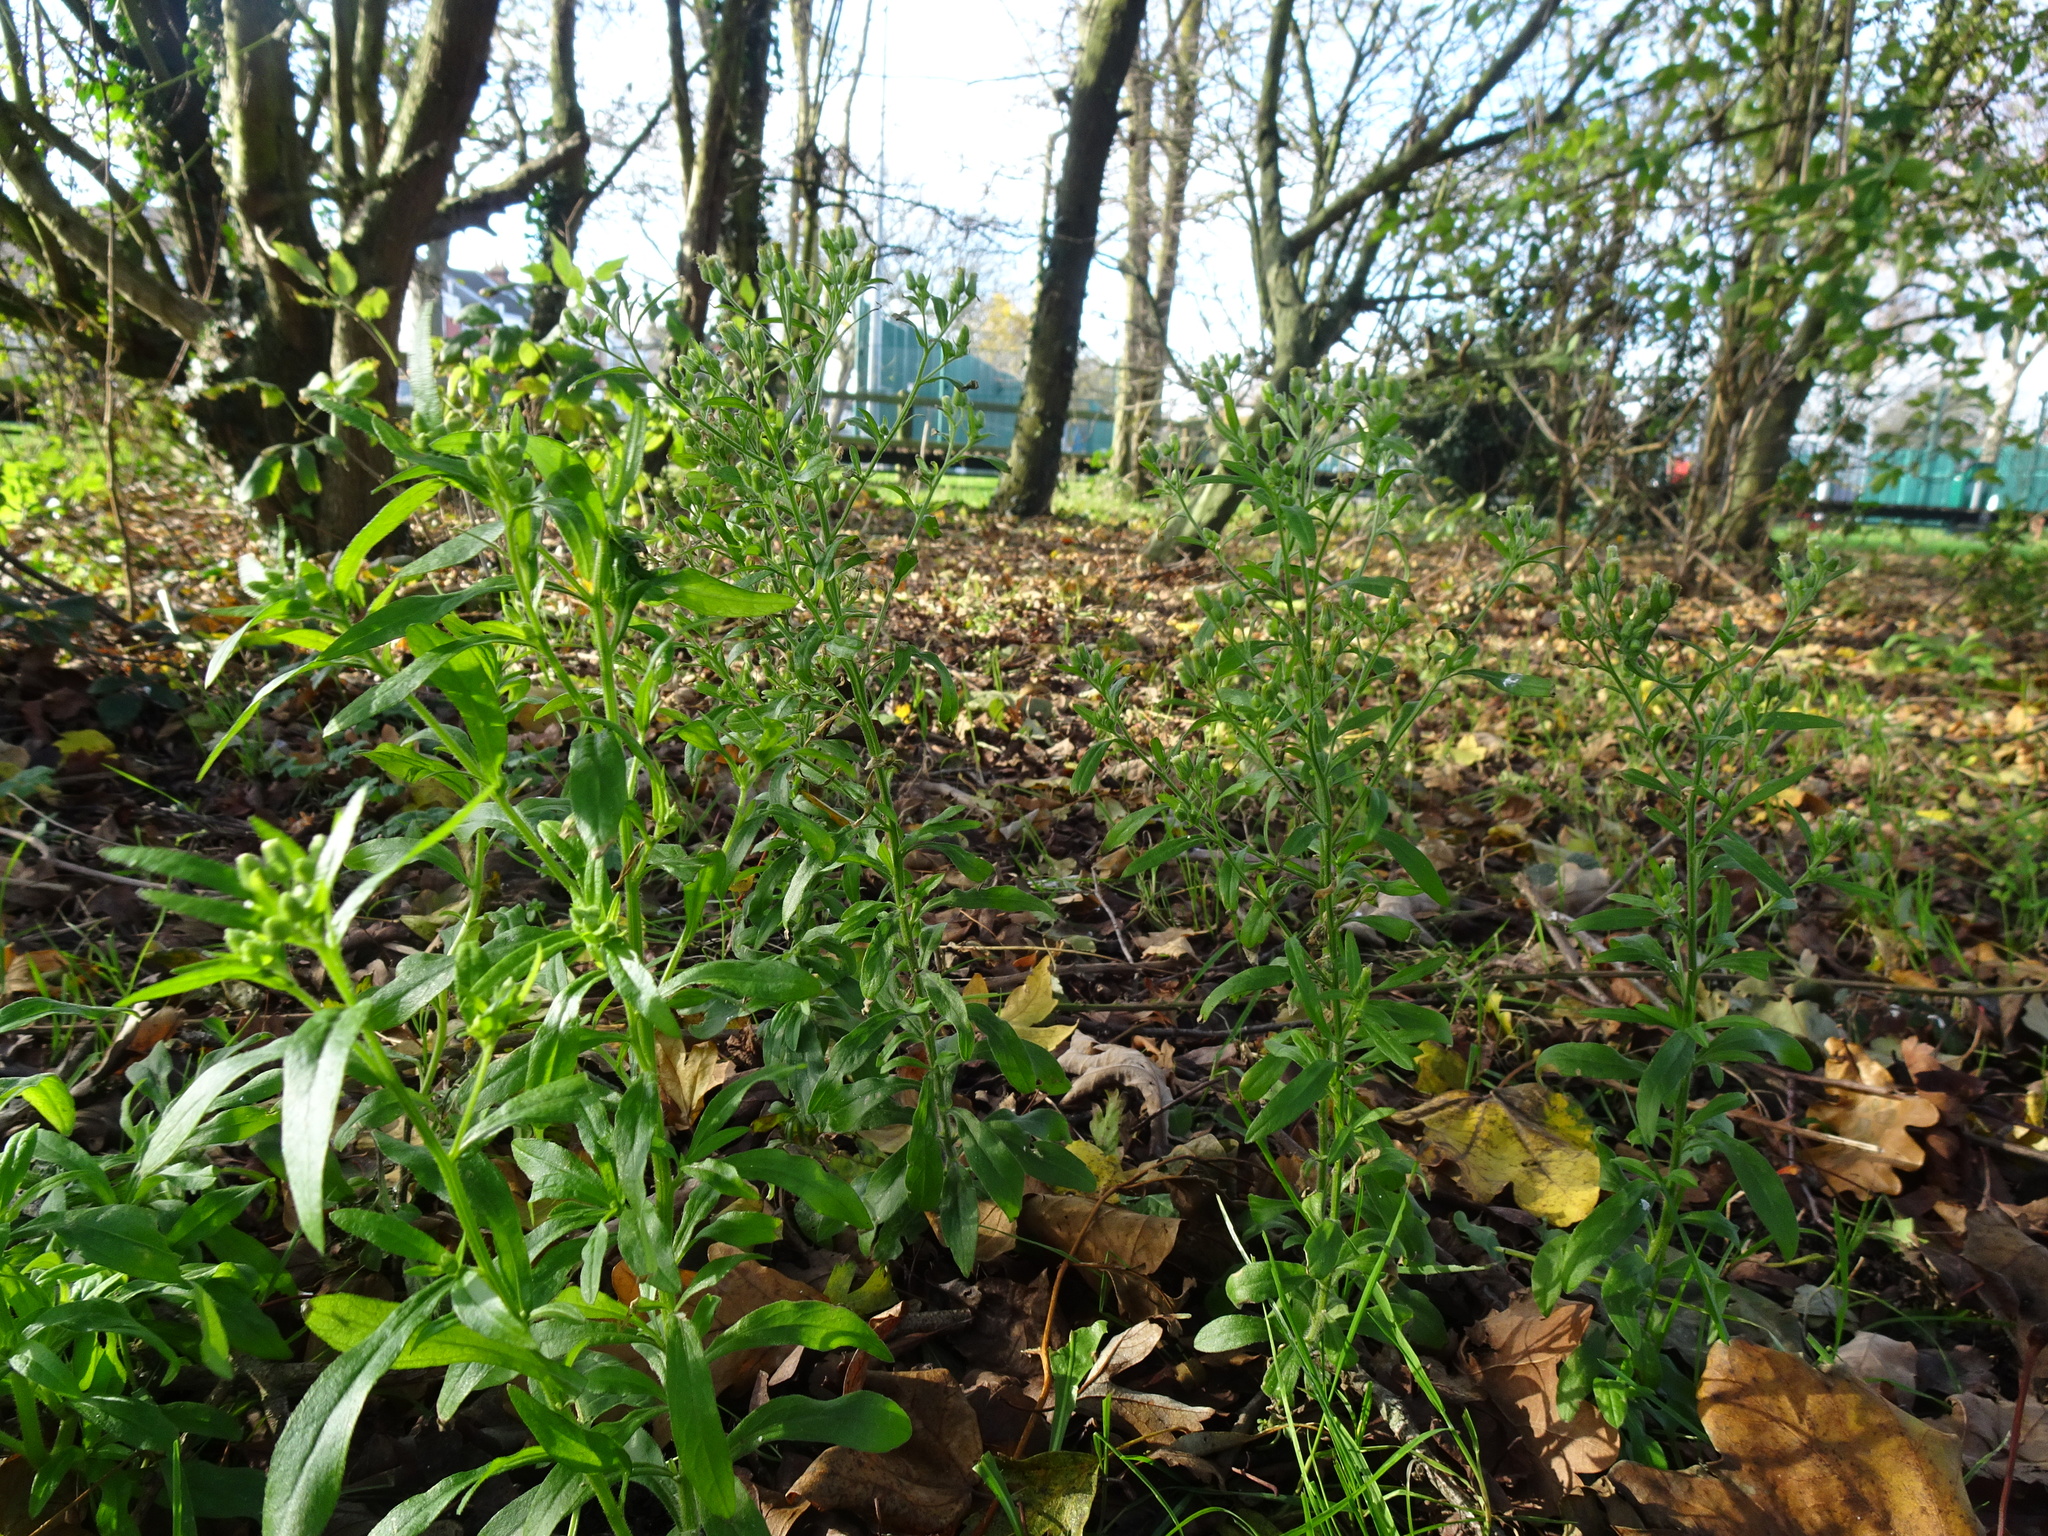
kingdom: Plantae
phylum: Tracheophyta
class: Magnoliopsida
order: Asterales
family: Asteraceae
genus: Erigeron
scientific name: Erigeron canadensis
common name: Canadian fleabane
